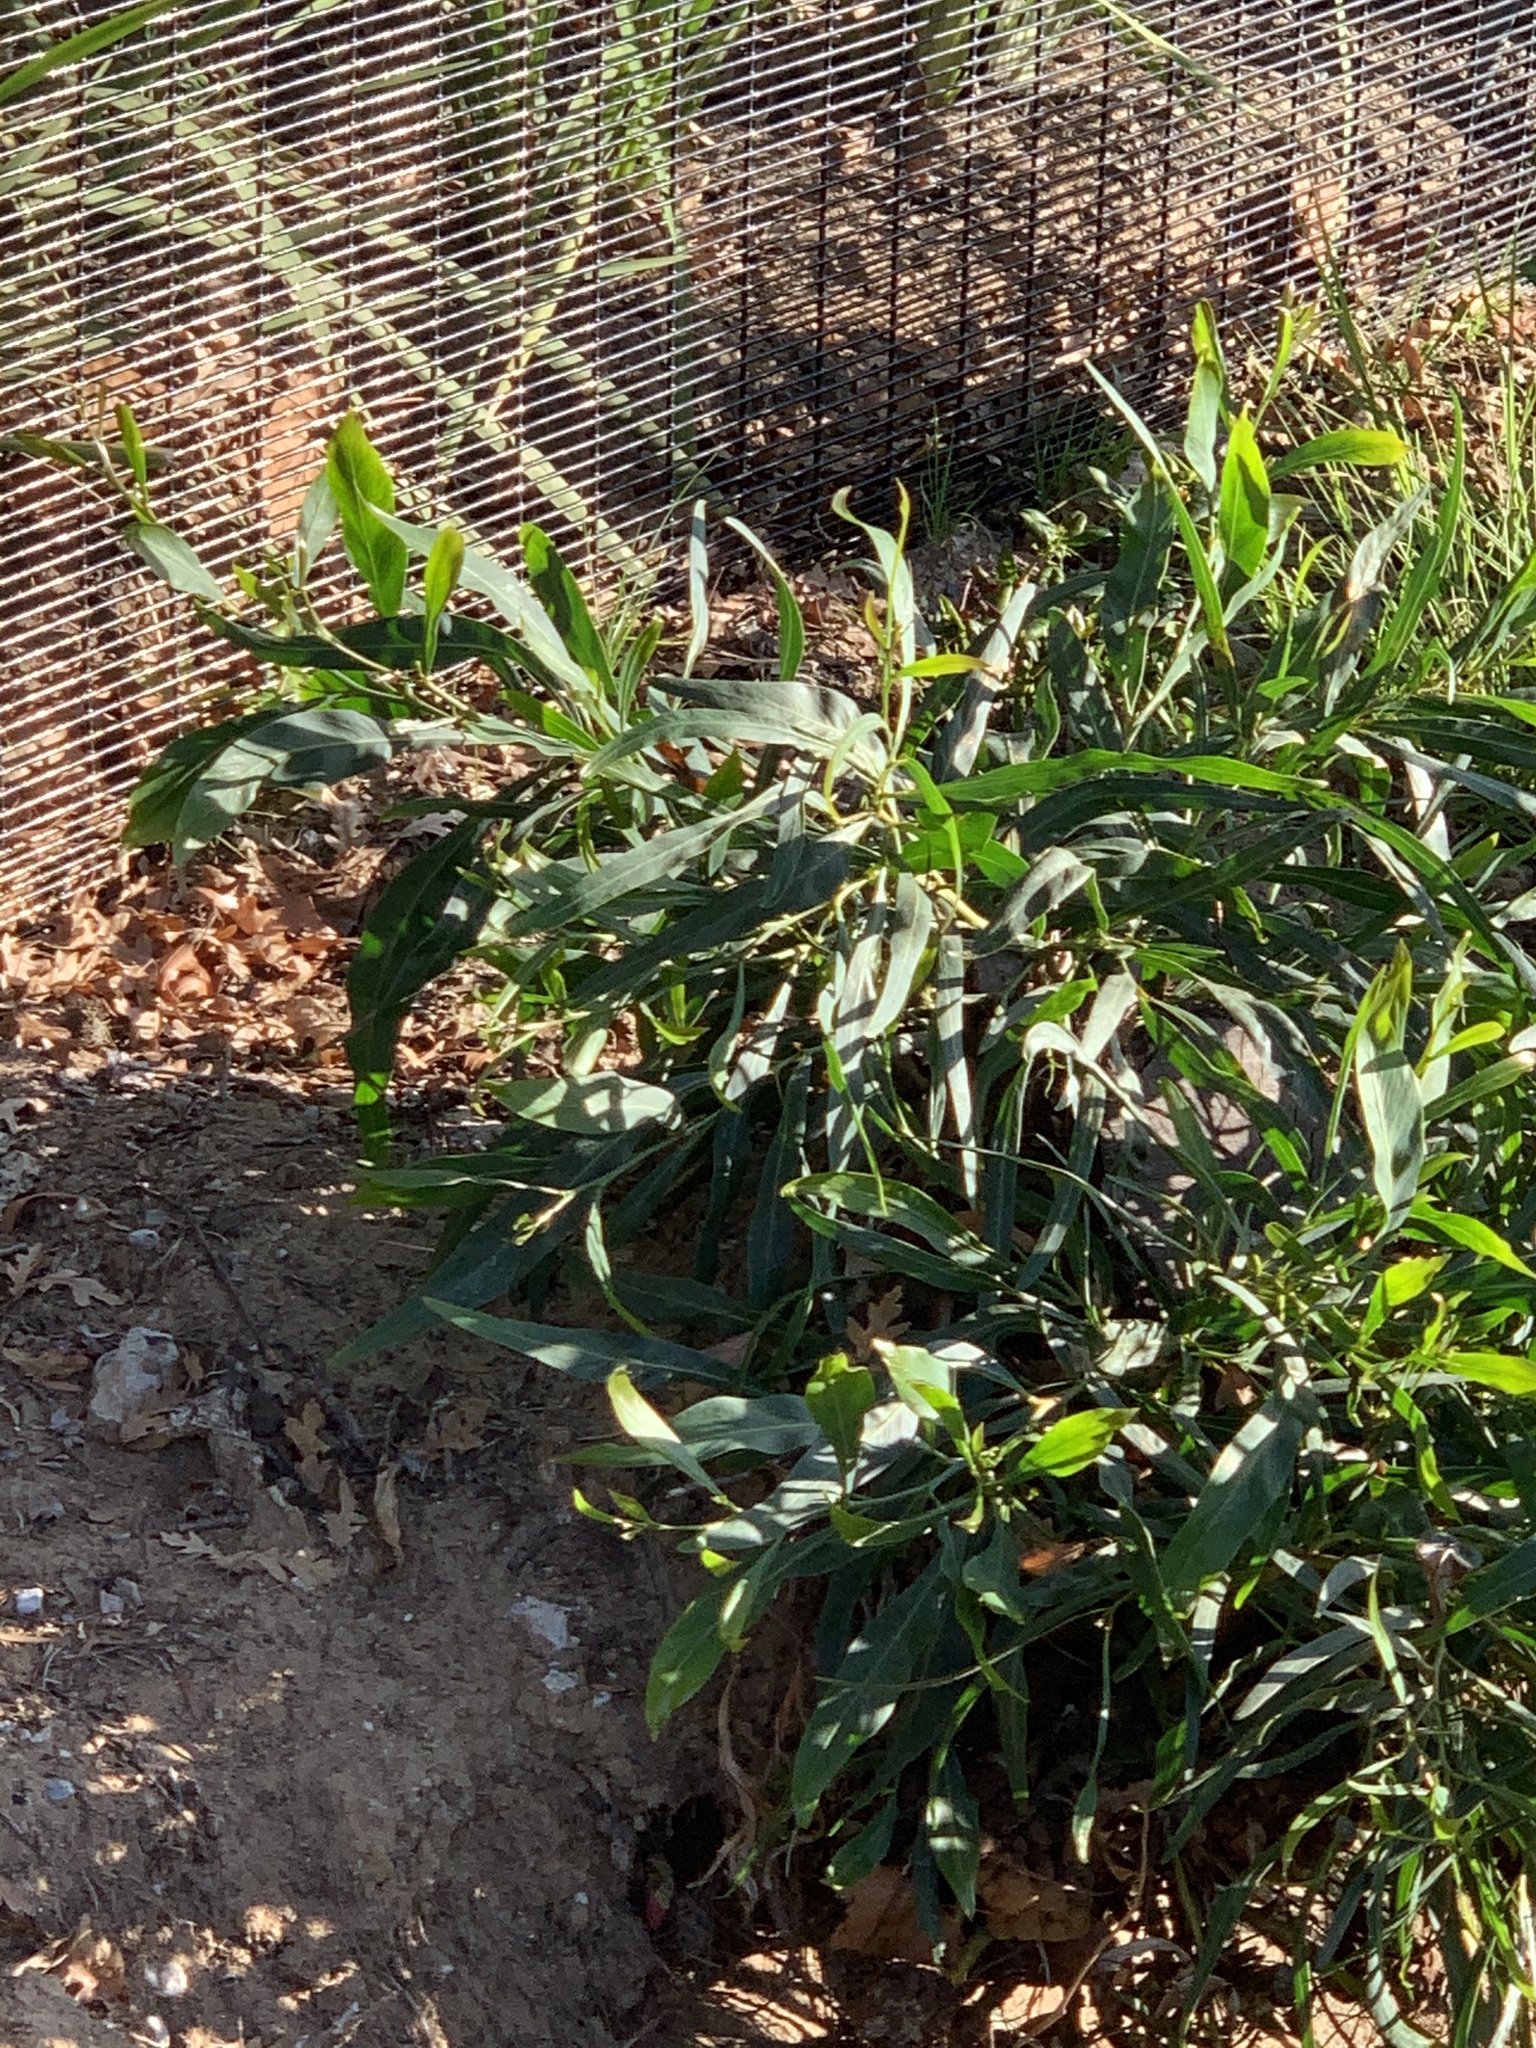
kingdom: Plantae
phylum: Tracheophyta
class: Magnoliopsida
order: Fabales
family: Fabaceae
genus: Acacia
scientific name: Acacia saligna
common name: Orange wattle
